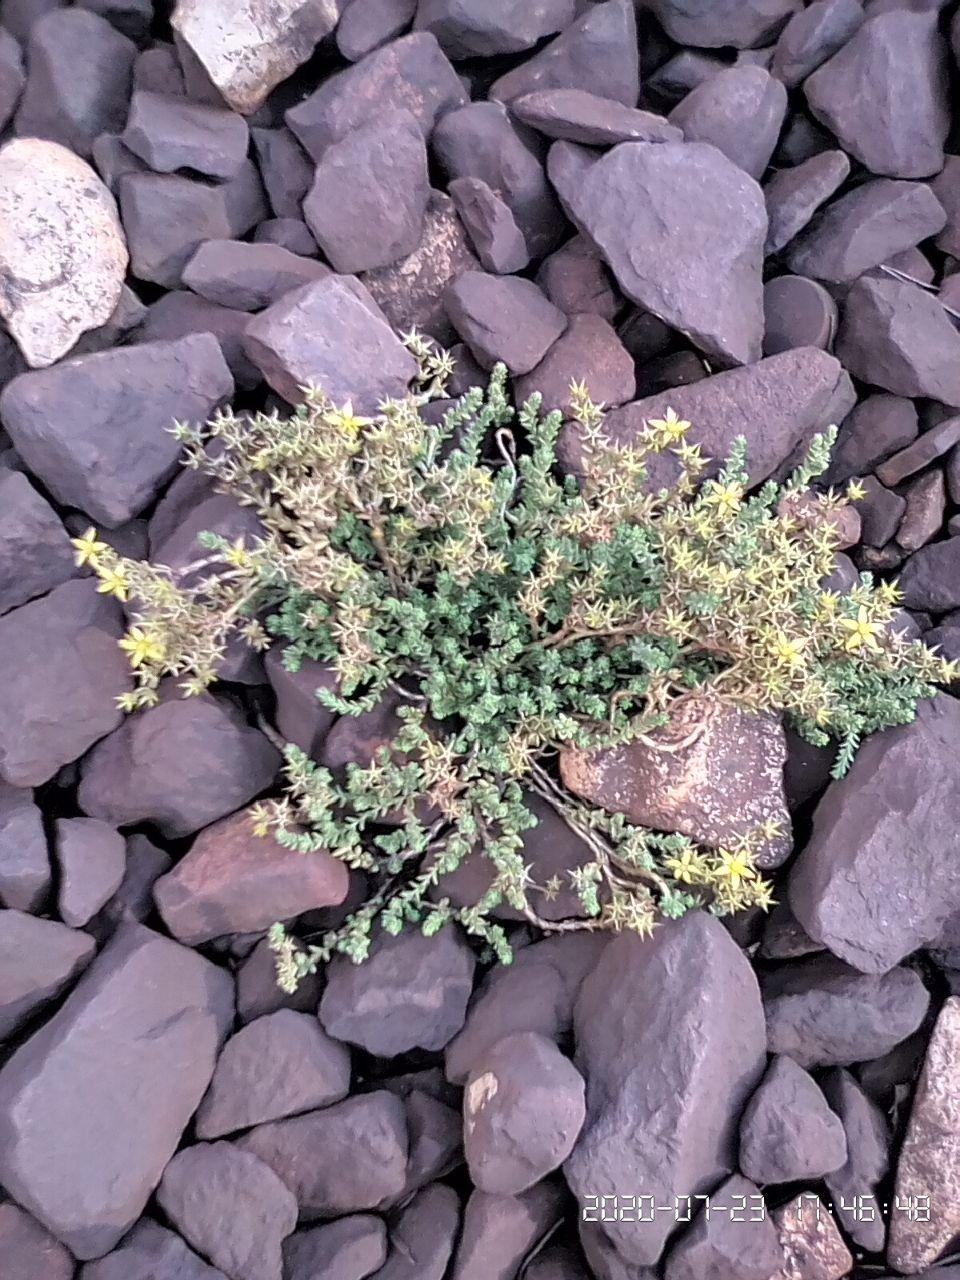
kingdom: Plantae
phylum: Tracheophyta
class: Magnoliopsida
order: Saxifragales
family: Crassulaceae
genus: Sedum
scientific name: Sedum acre
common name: Biting stonecrop
